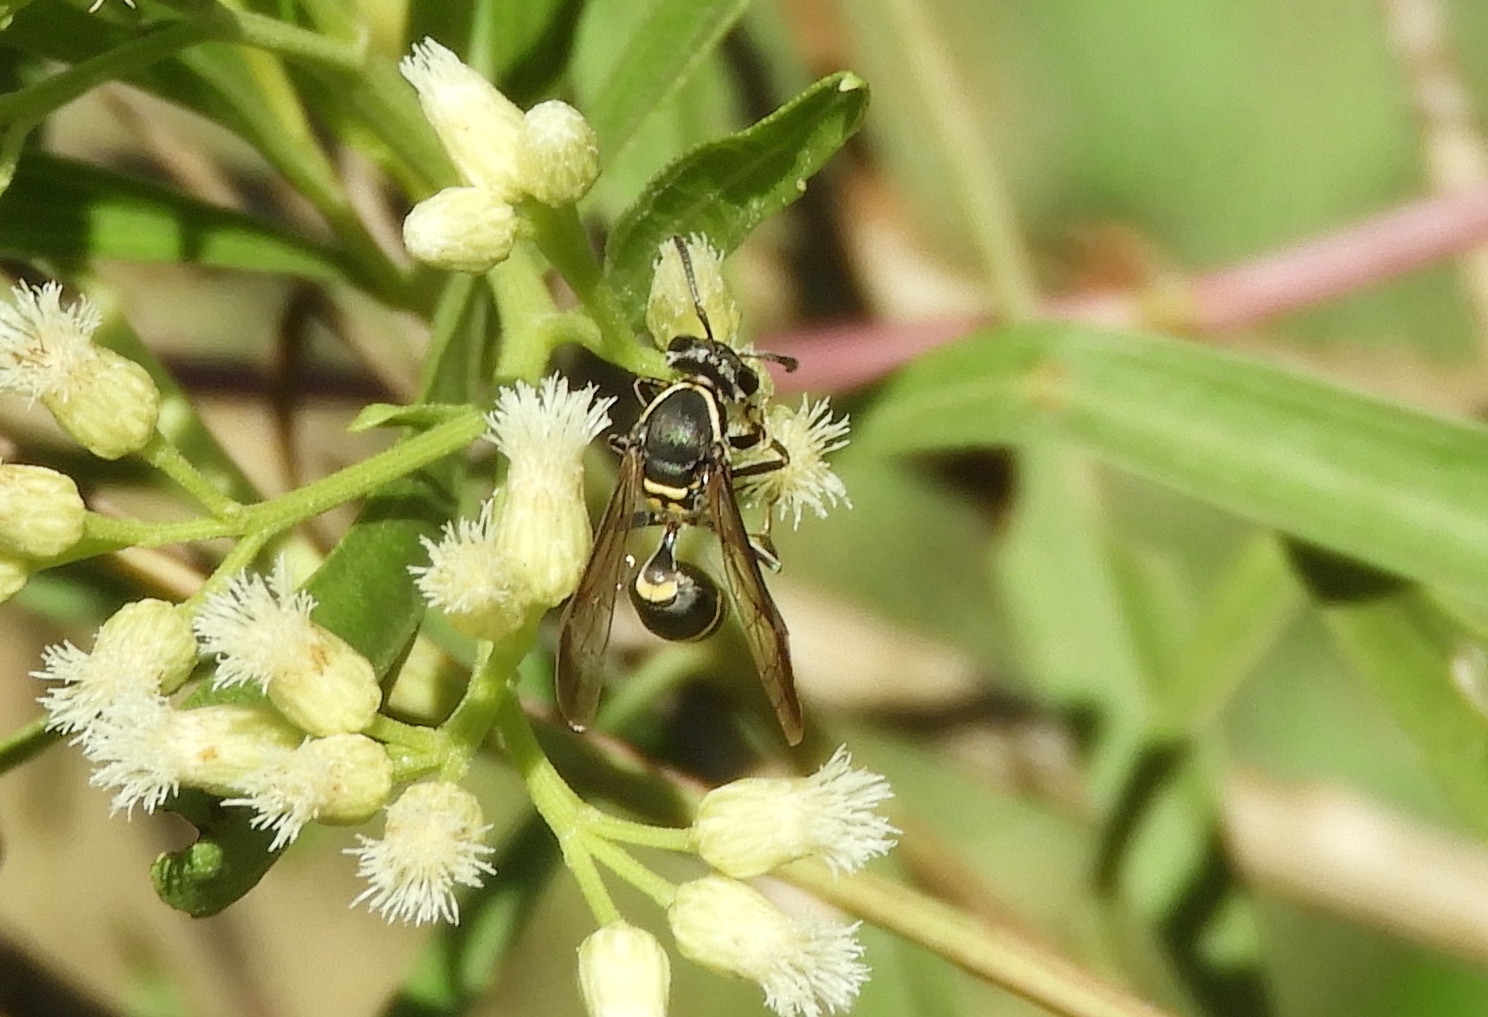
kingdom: Animalia
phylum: Arthropoda
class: Insecta
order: Hymenoptera
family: Eumenidae
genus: Polybia
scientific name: Polybia
